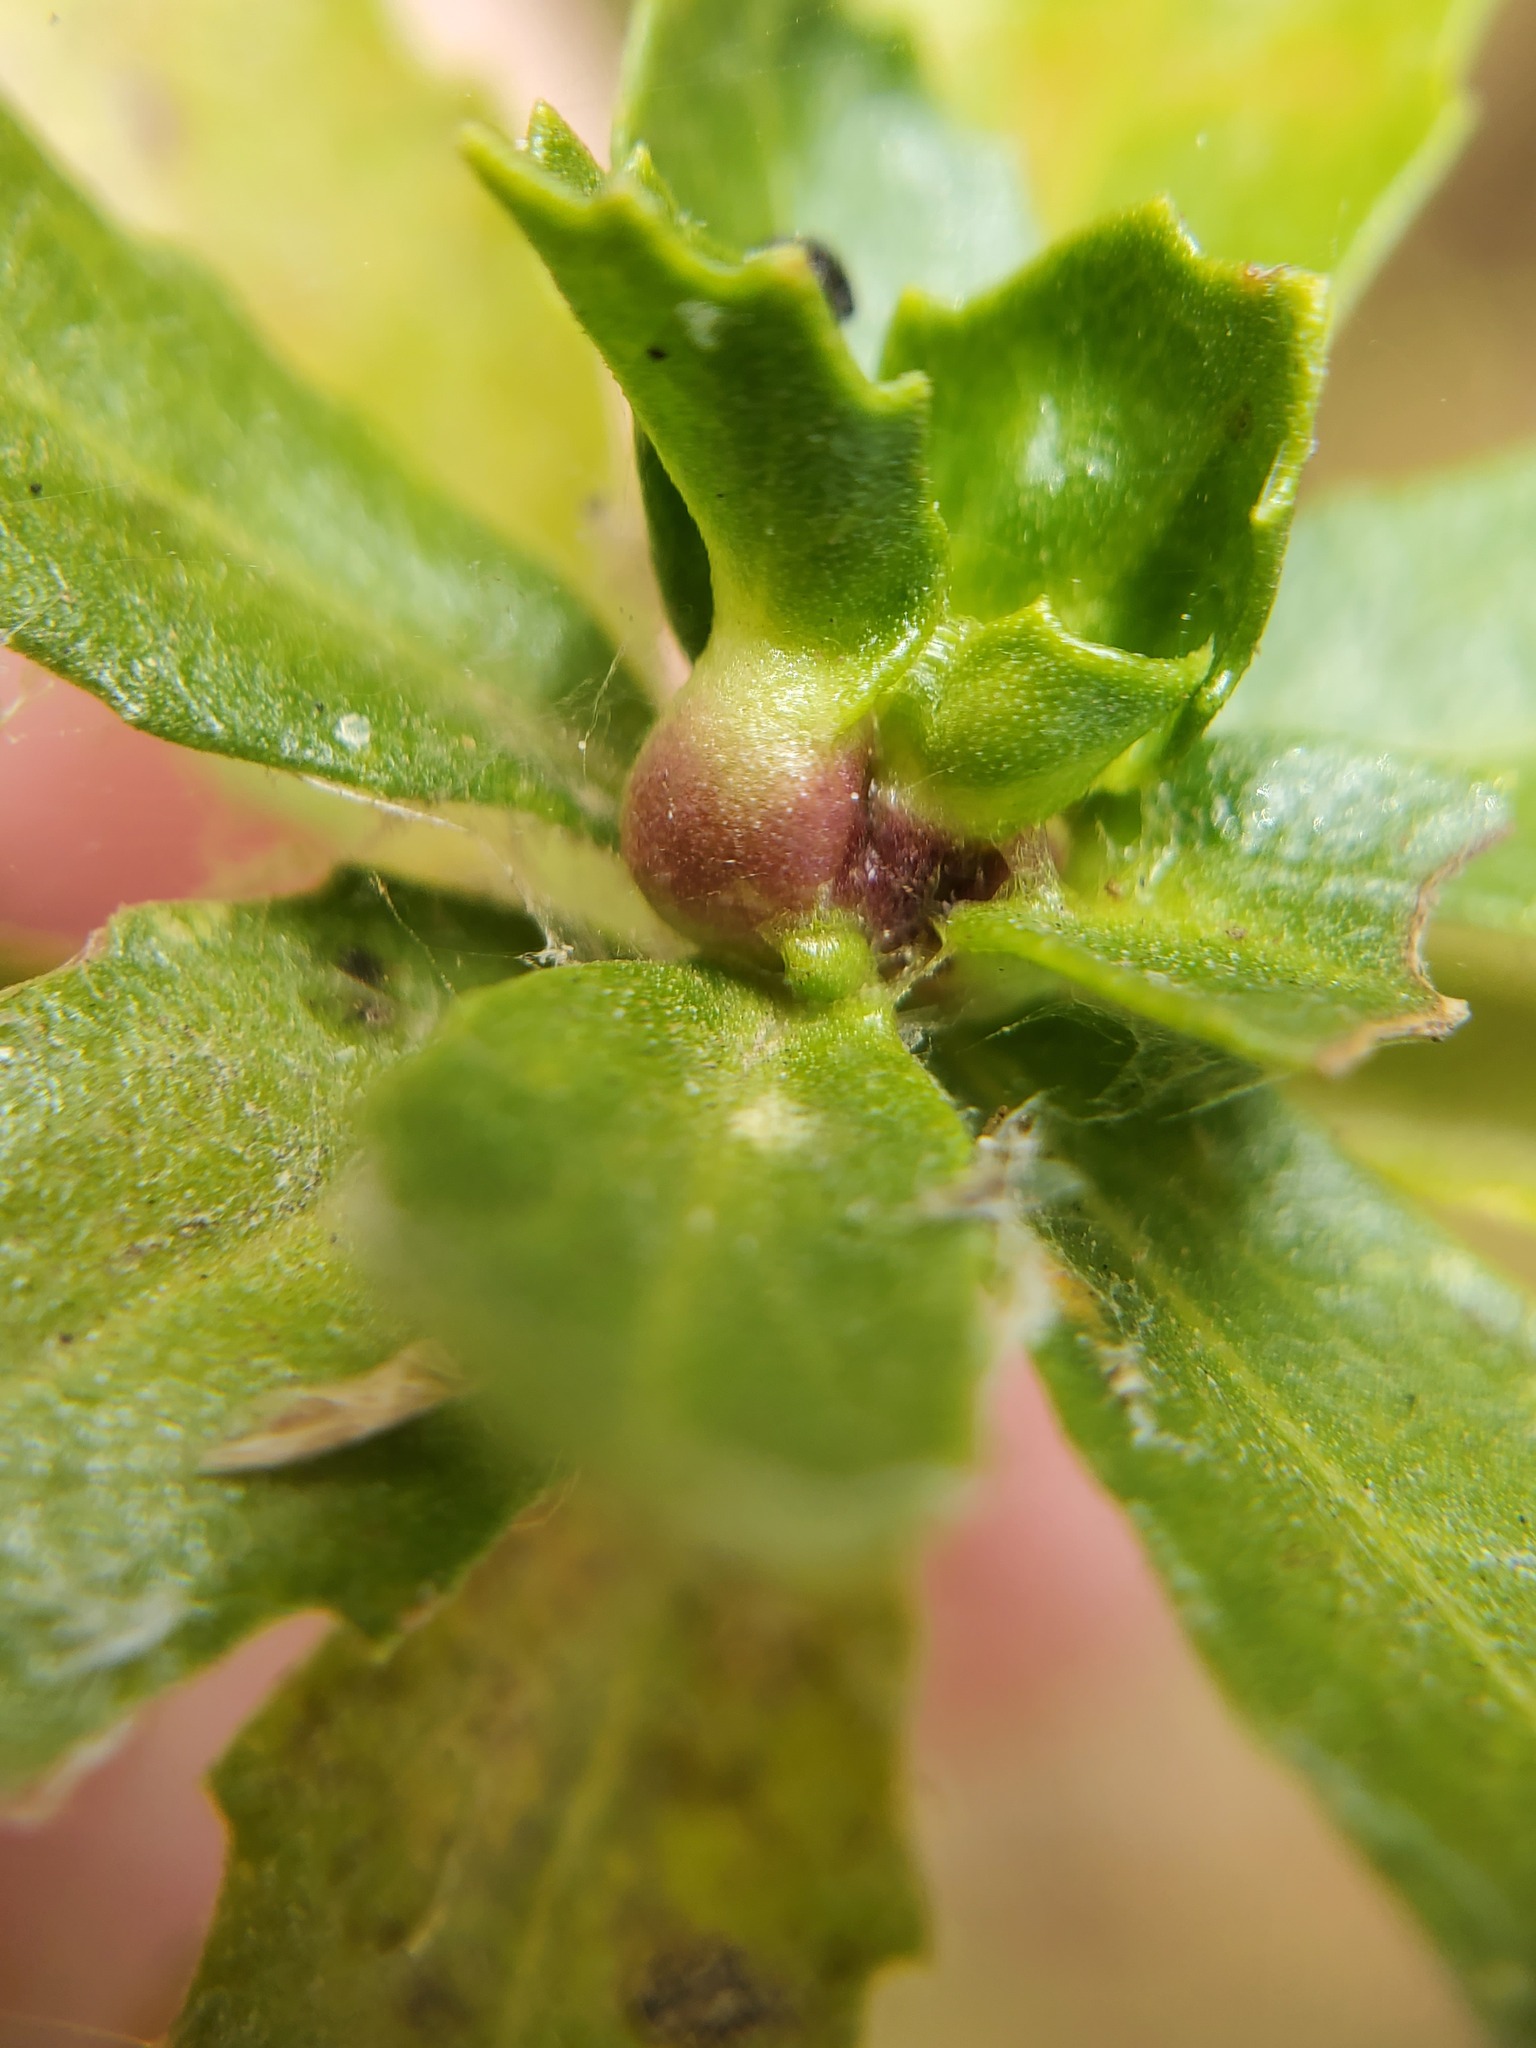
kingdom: Animalia
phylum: Arthropoda
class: Insecta
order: Diptera
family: Cecidomyiidae
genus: Rhopalomyia
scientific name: Rhopalomyia californica
